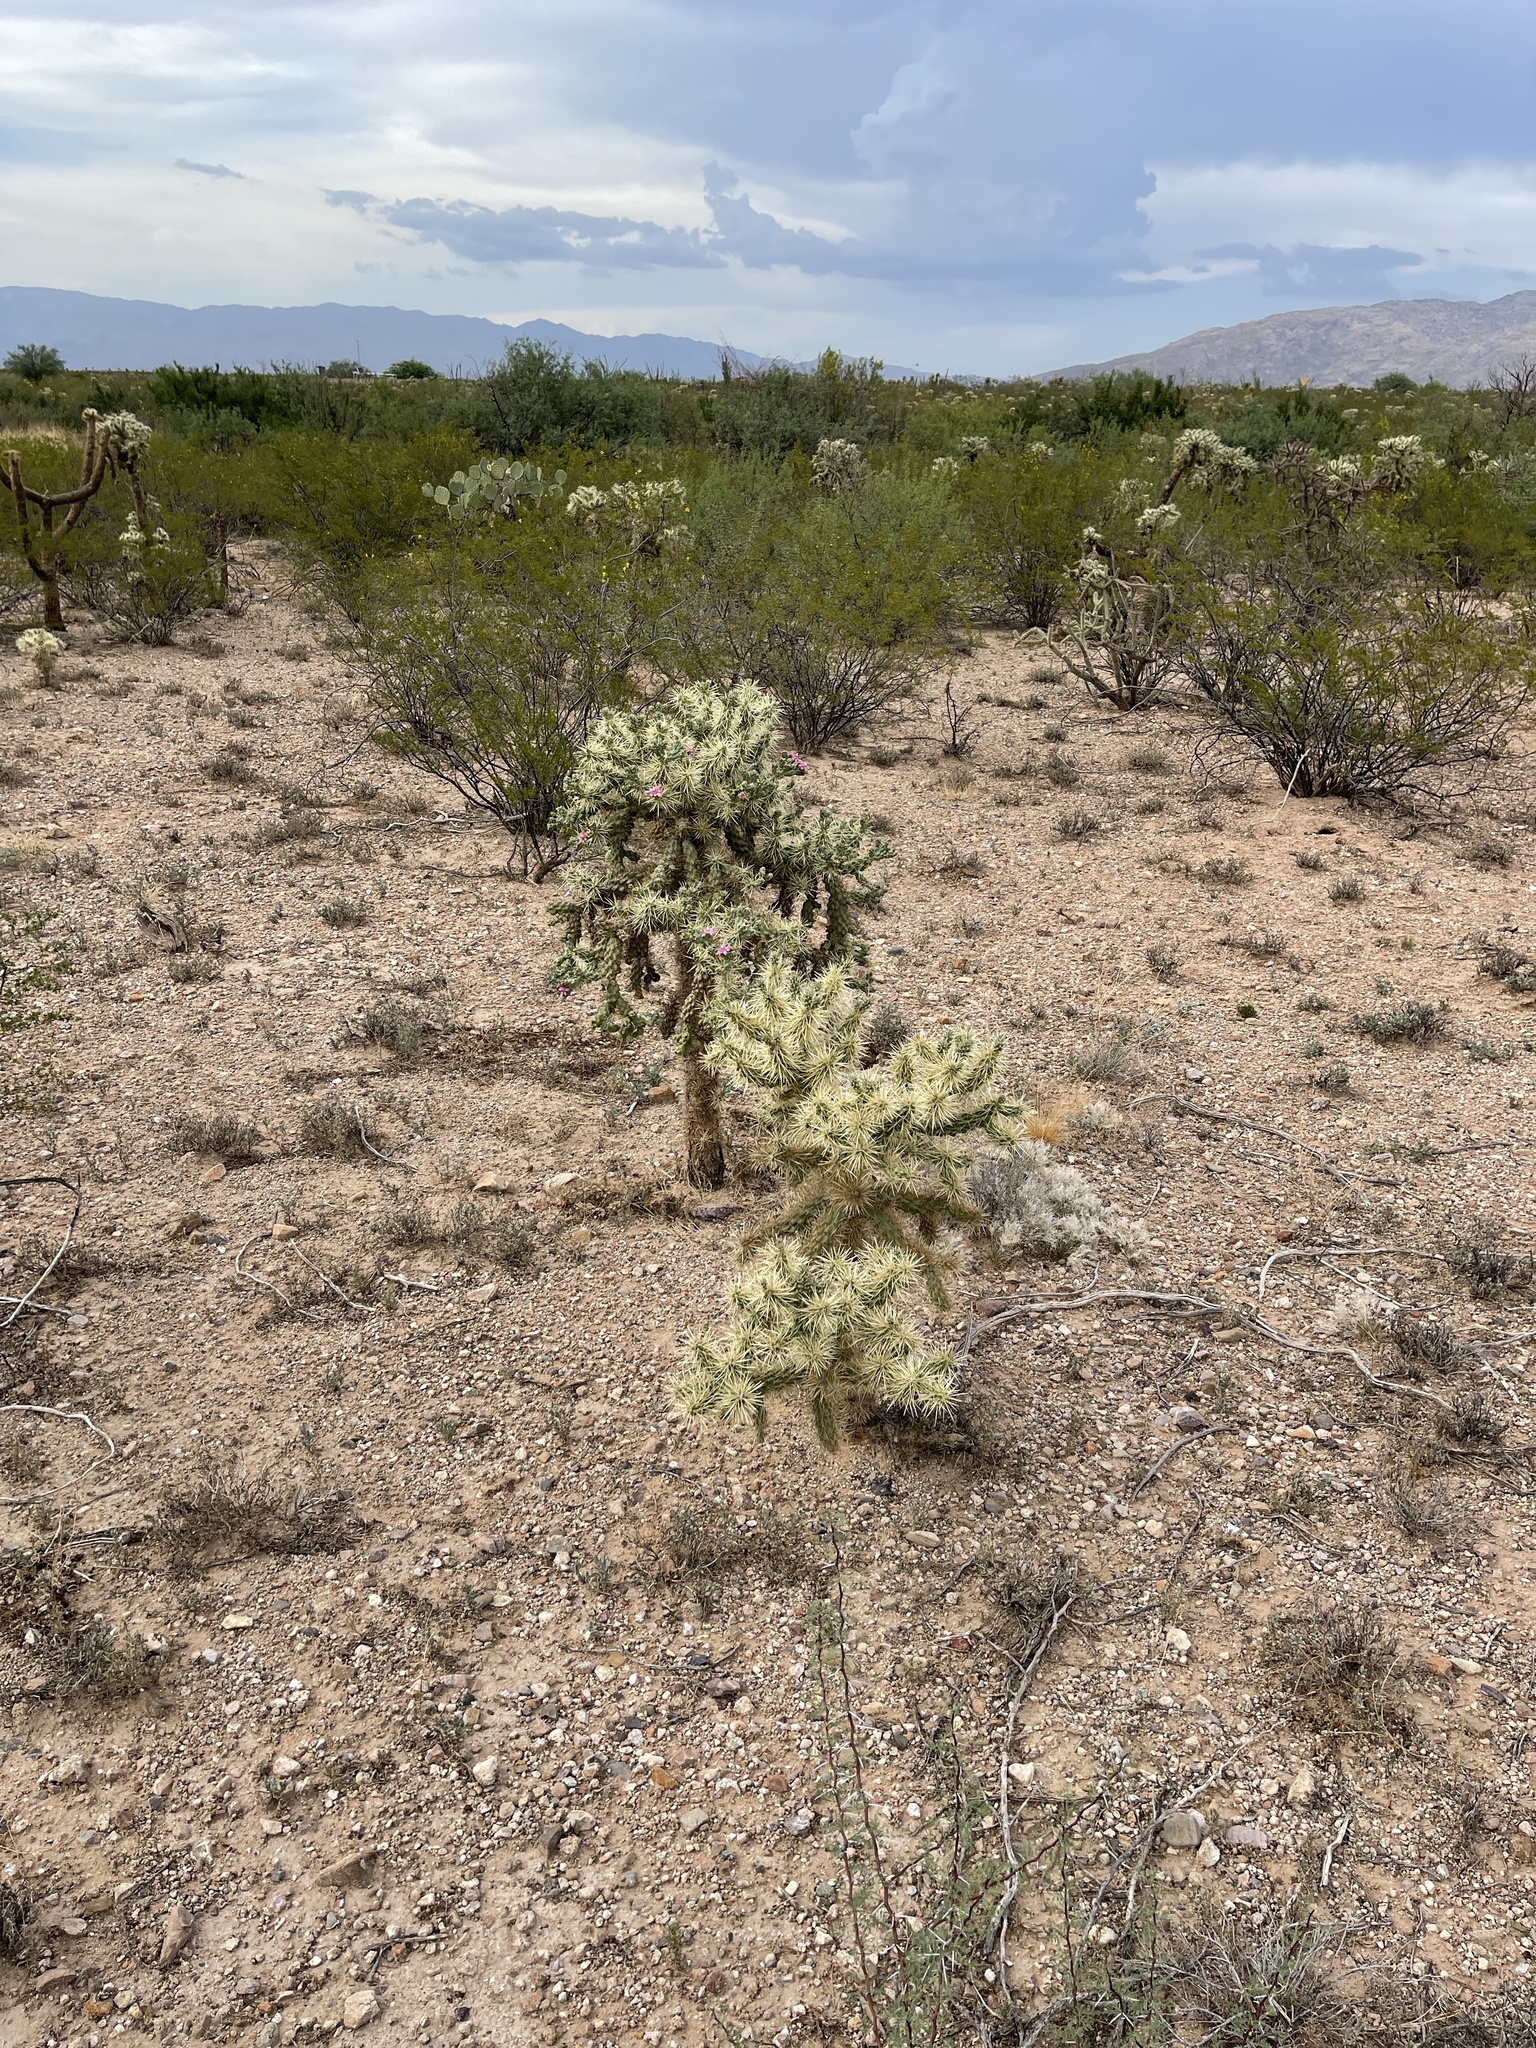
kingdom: Plantae
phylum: Tracheophyta
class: Magnoliopsida
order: Caryophyllales
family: Cactaceae
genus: Cylindropuntia
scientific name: Cylindropuntia fulgida
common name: Jumping cholla
